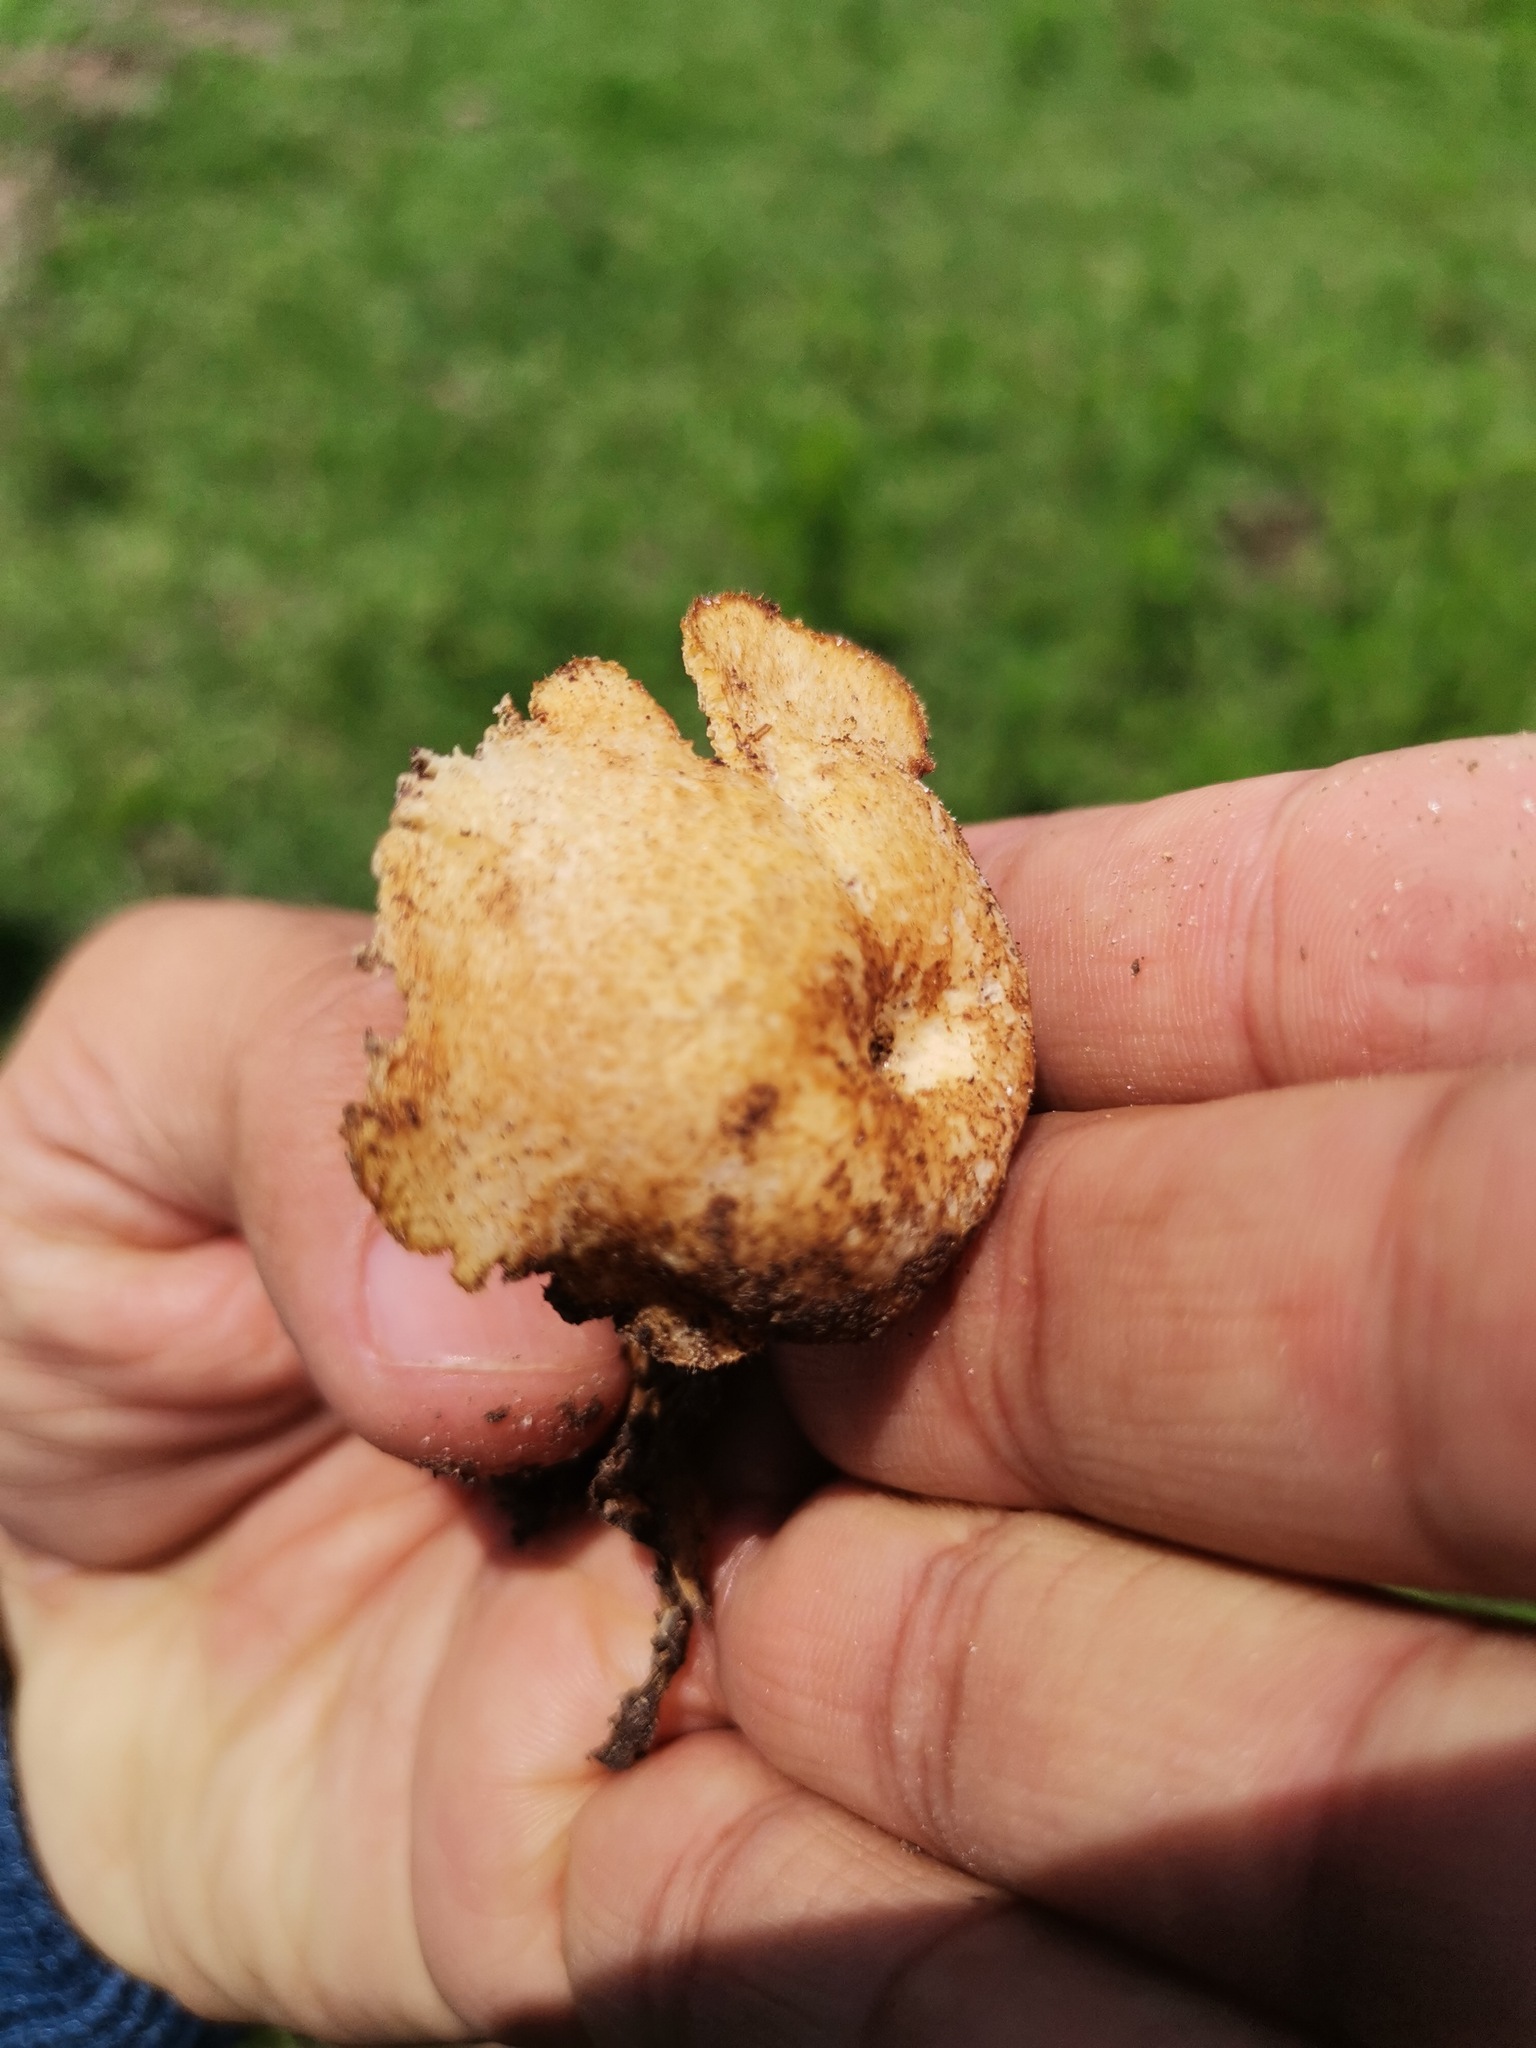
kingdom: Fungi
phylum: Basidiomycota
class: Agaricomycetes
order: Polyporales
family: Polyporaceae
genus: Lentinus
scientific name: Lentinus arcularius
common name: Spring polypore
